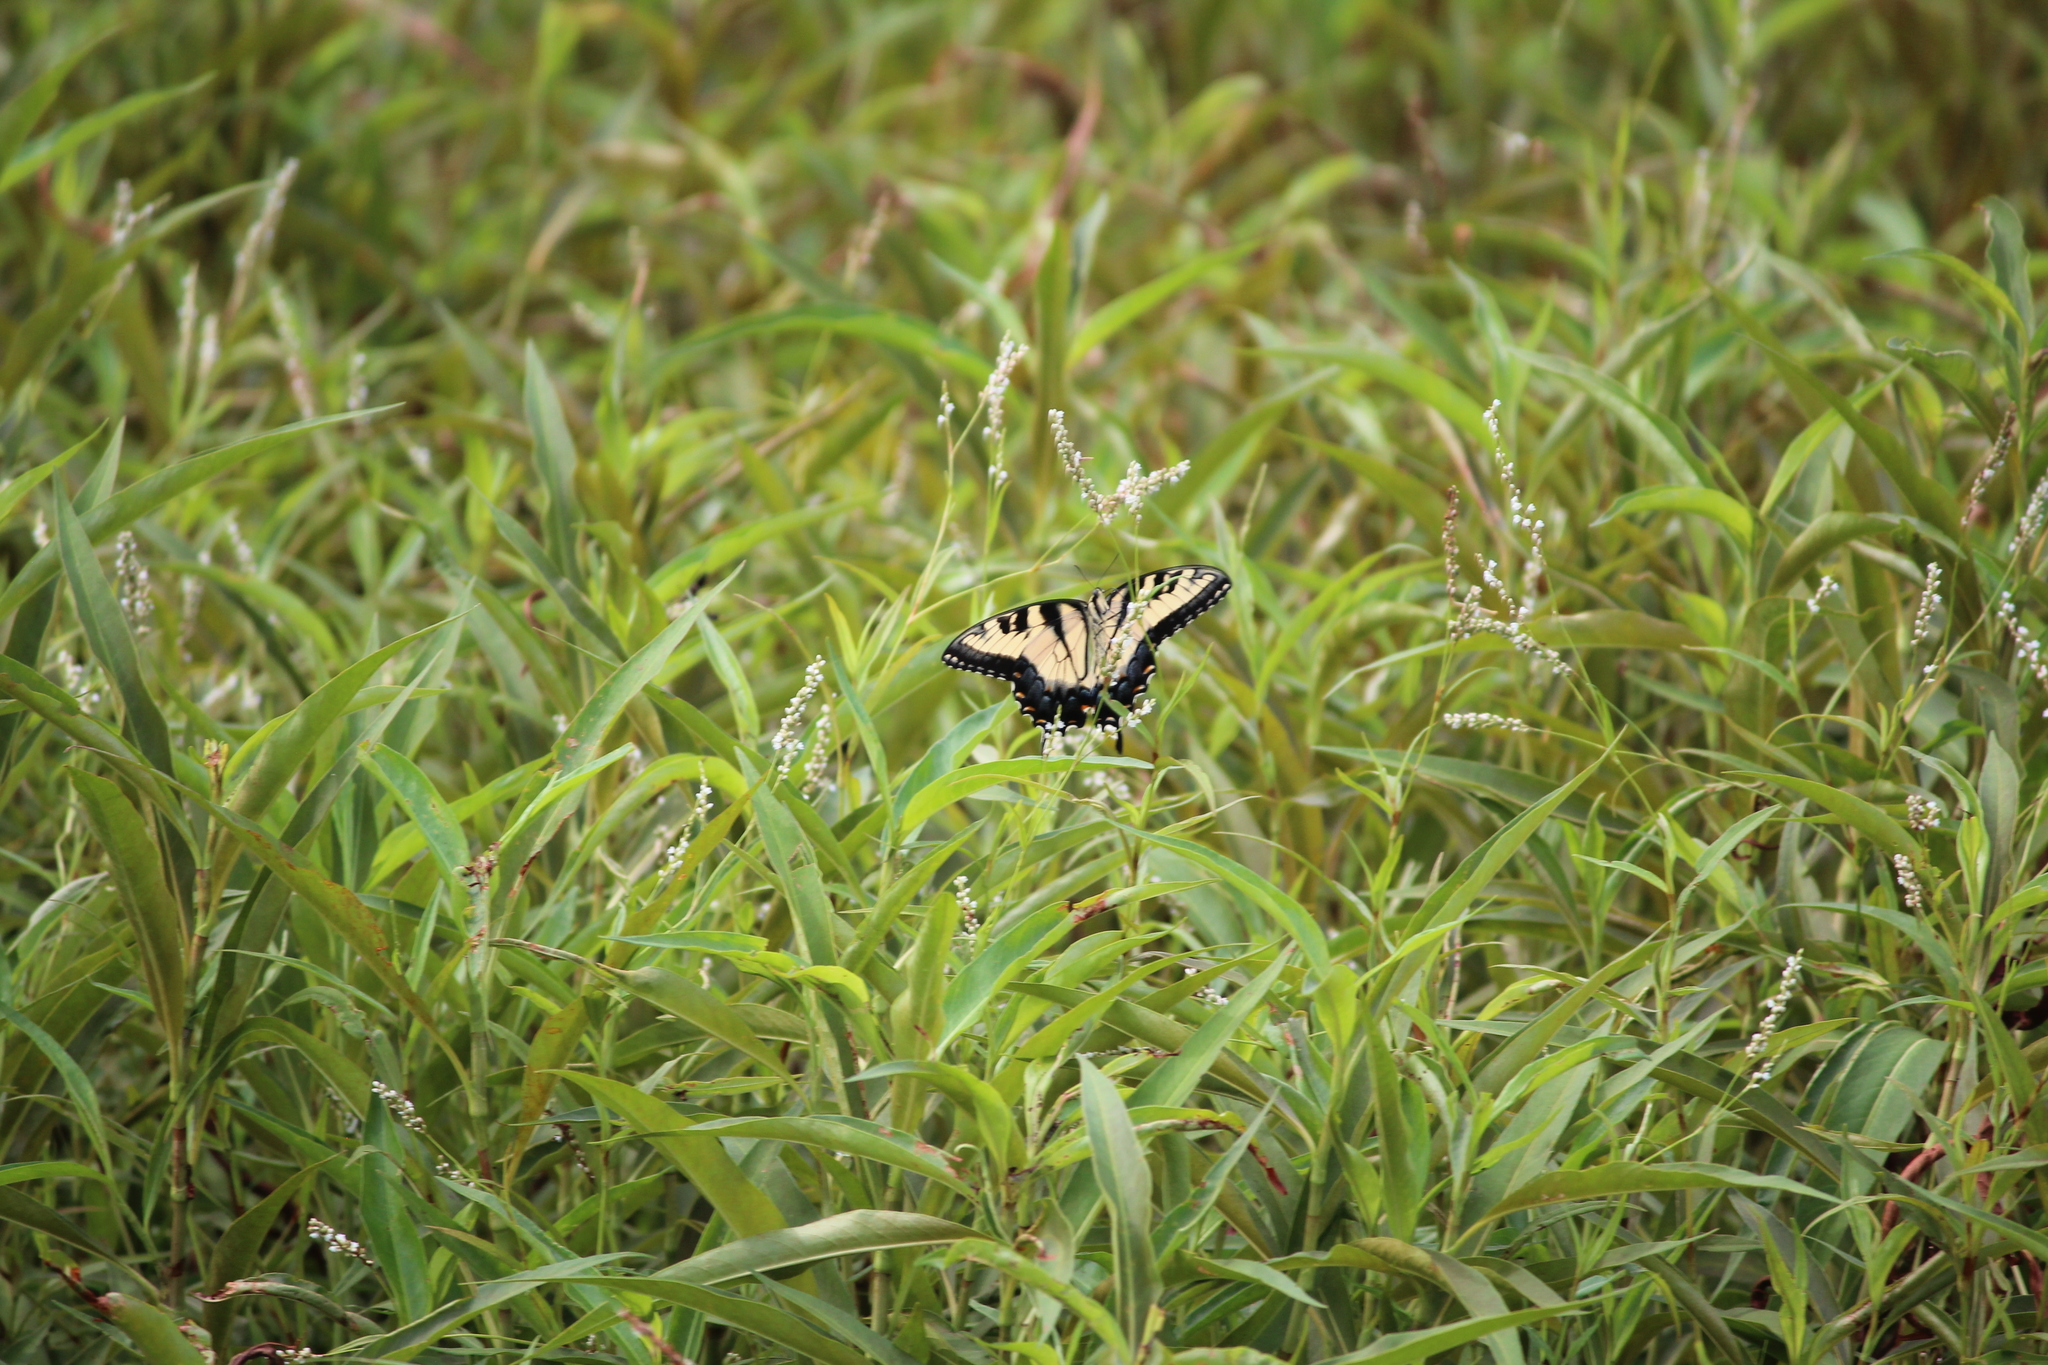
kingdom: Animalia
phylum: Arthropoda
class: Insecta
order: Lepidoptera
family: Papilionidae
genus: Papilio
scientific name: Papilio glaucus
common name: Tiger swallowtail
